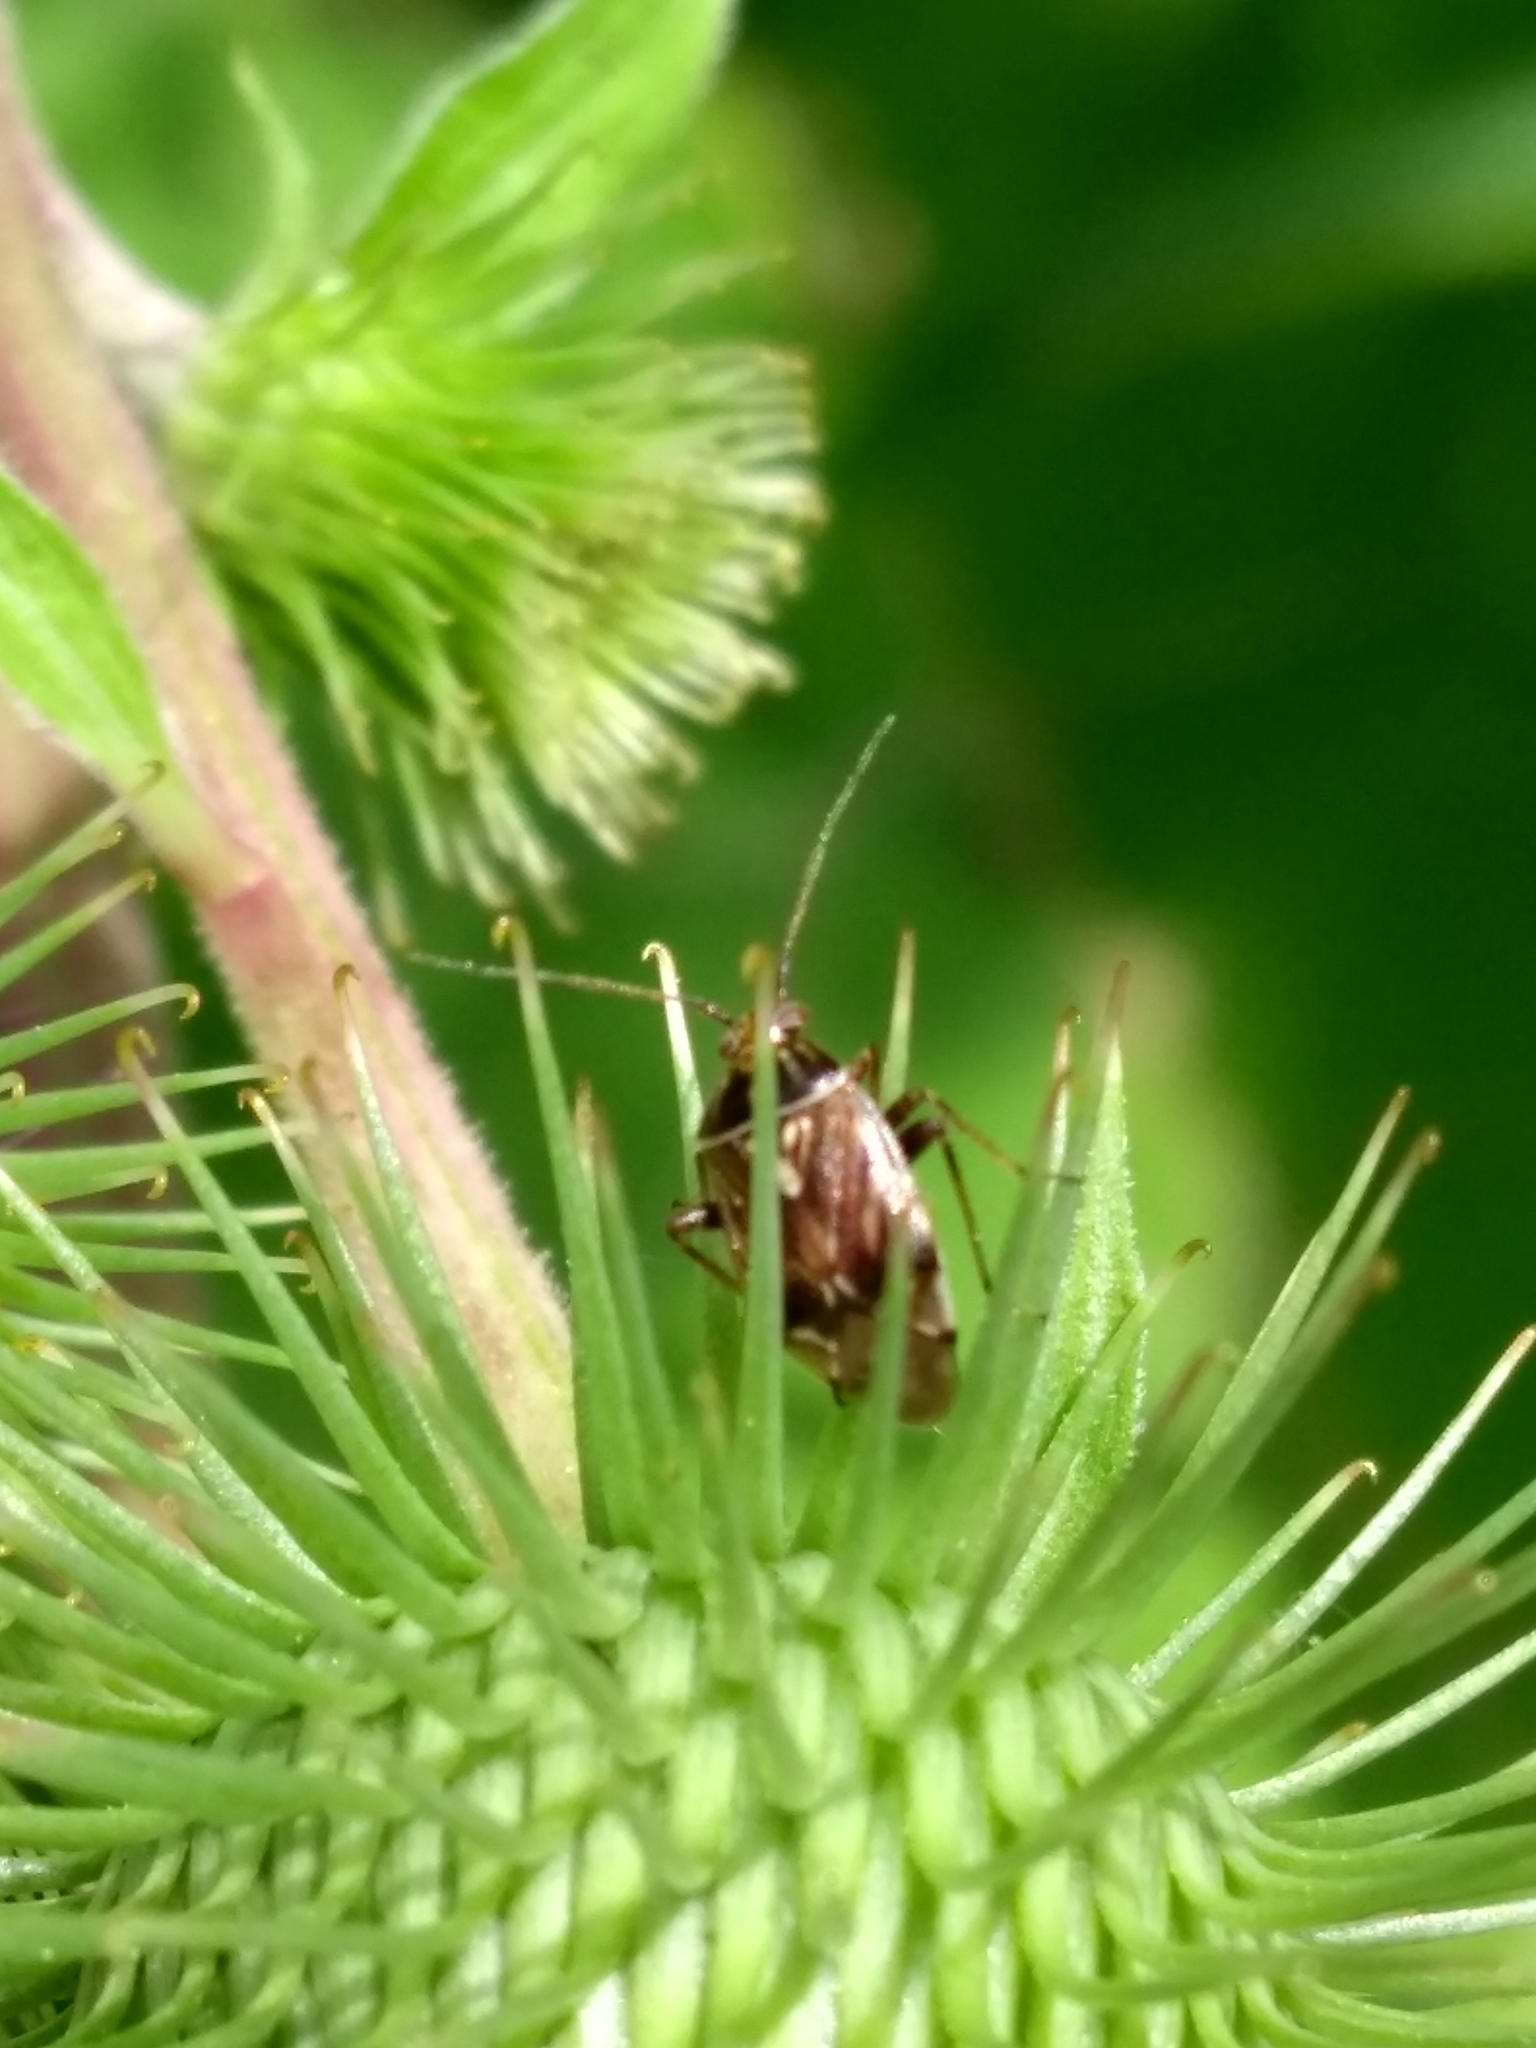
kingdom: Animalia
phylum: Arthropoda
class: Insecta
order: Hemiptera
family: Miridae
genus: Lygus
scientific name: Lygus lineolaris
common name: North american tarnished plant bug
